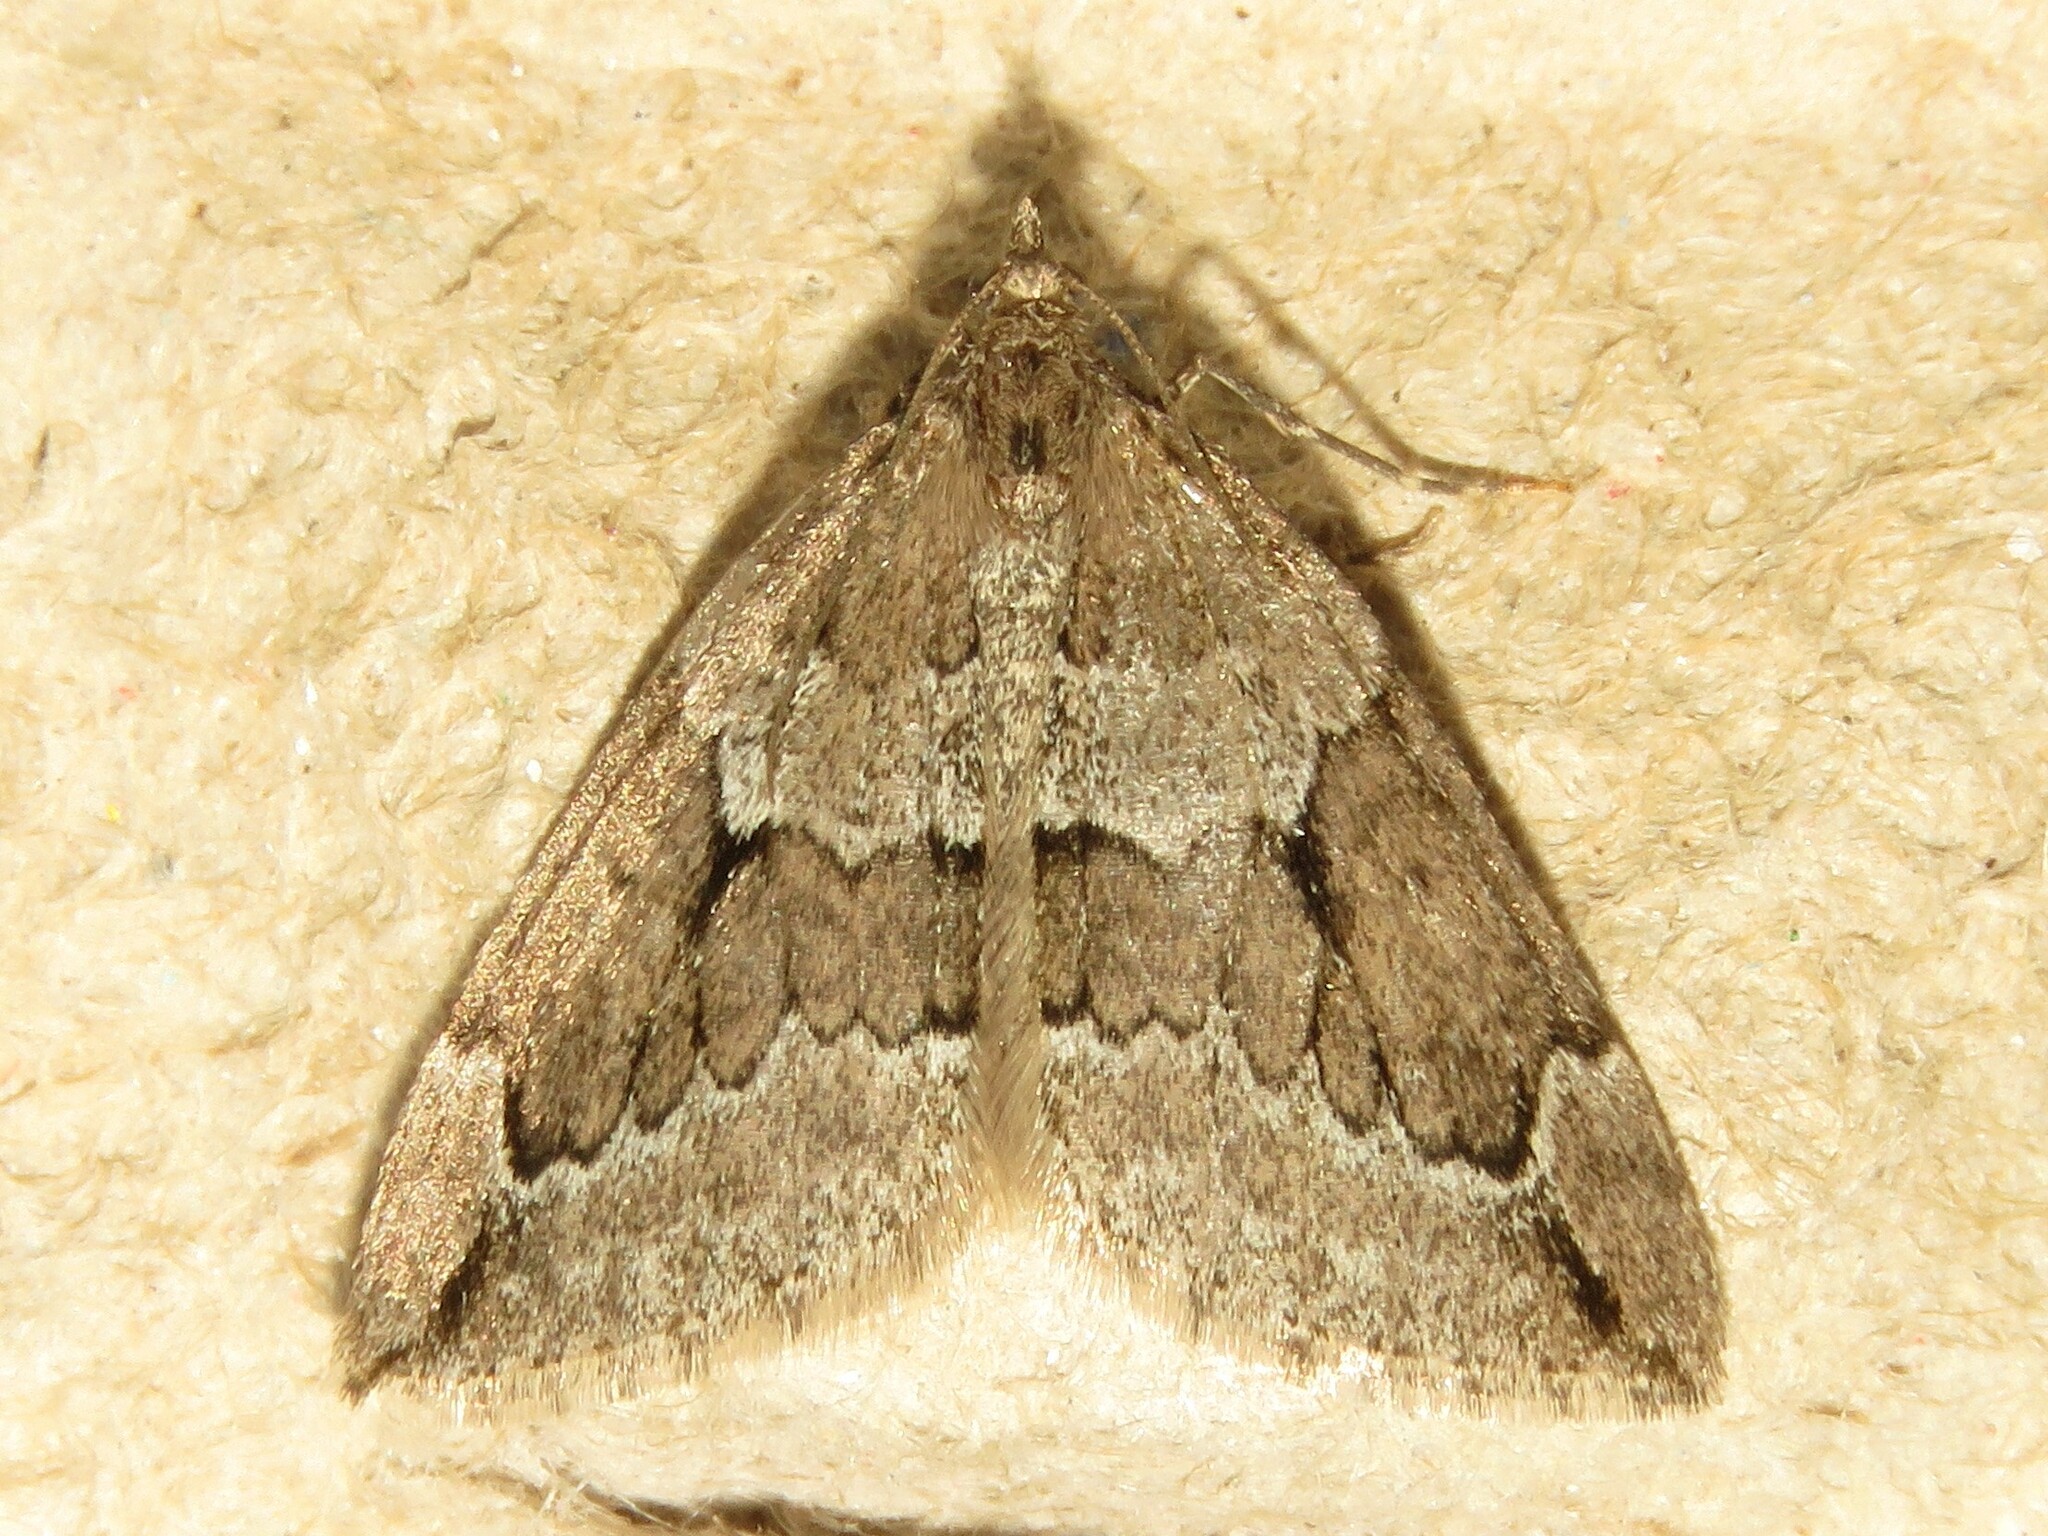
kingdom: Animalia
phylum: Arthropoda
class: Insecta
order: Lepidoptera
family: Geometridae
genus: Thera
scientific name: Thera juniperata
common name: Juniper carpet
